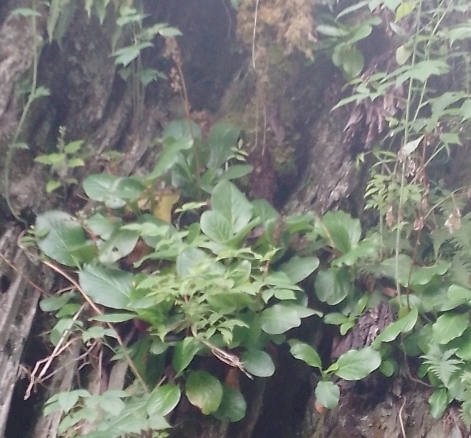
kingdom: Plantae
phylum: Tracheophyta
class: Magnoliopsida
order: Saxifragales
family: Saxifragaceae
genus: Bergenia
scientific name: Bergenia crassifolia
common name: Elephant-ears
